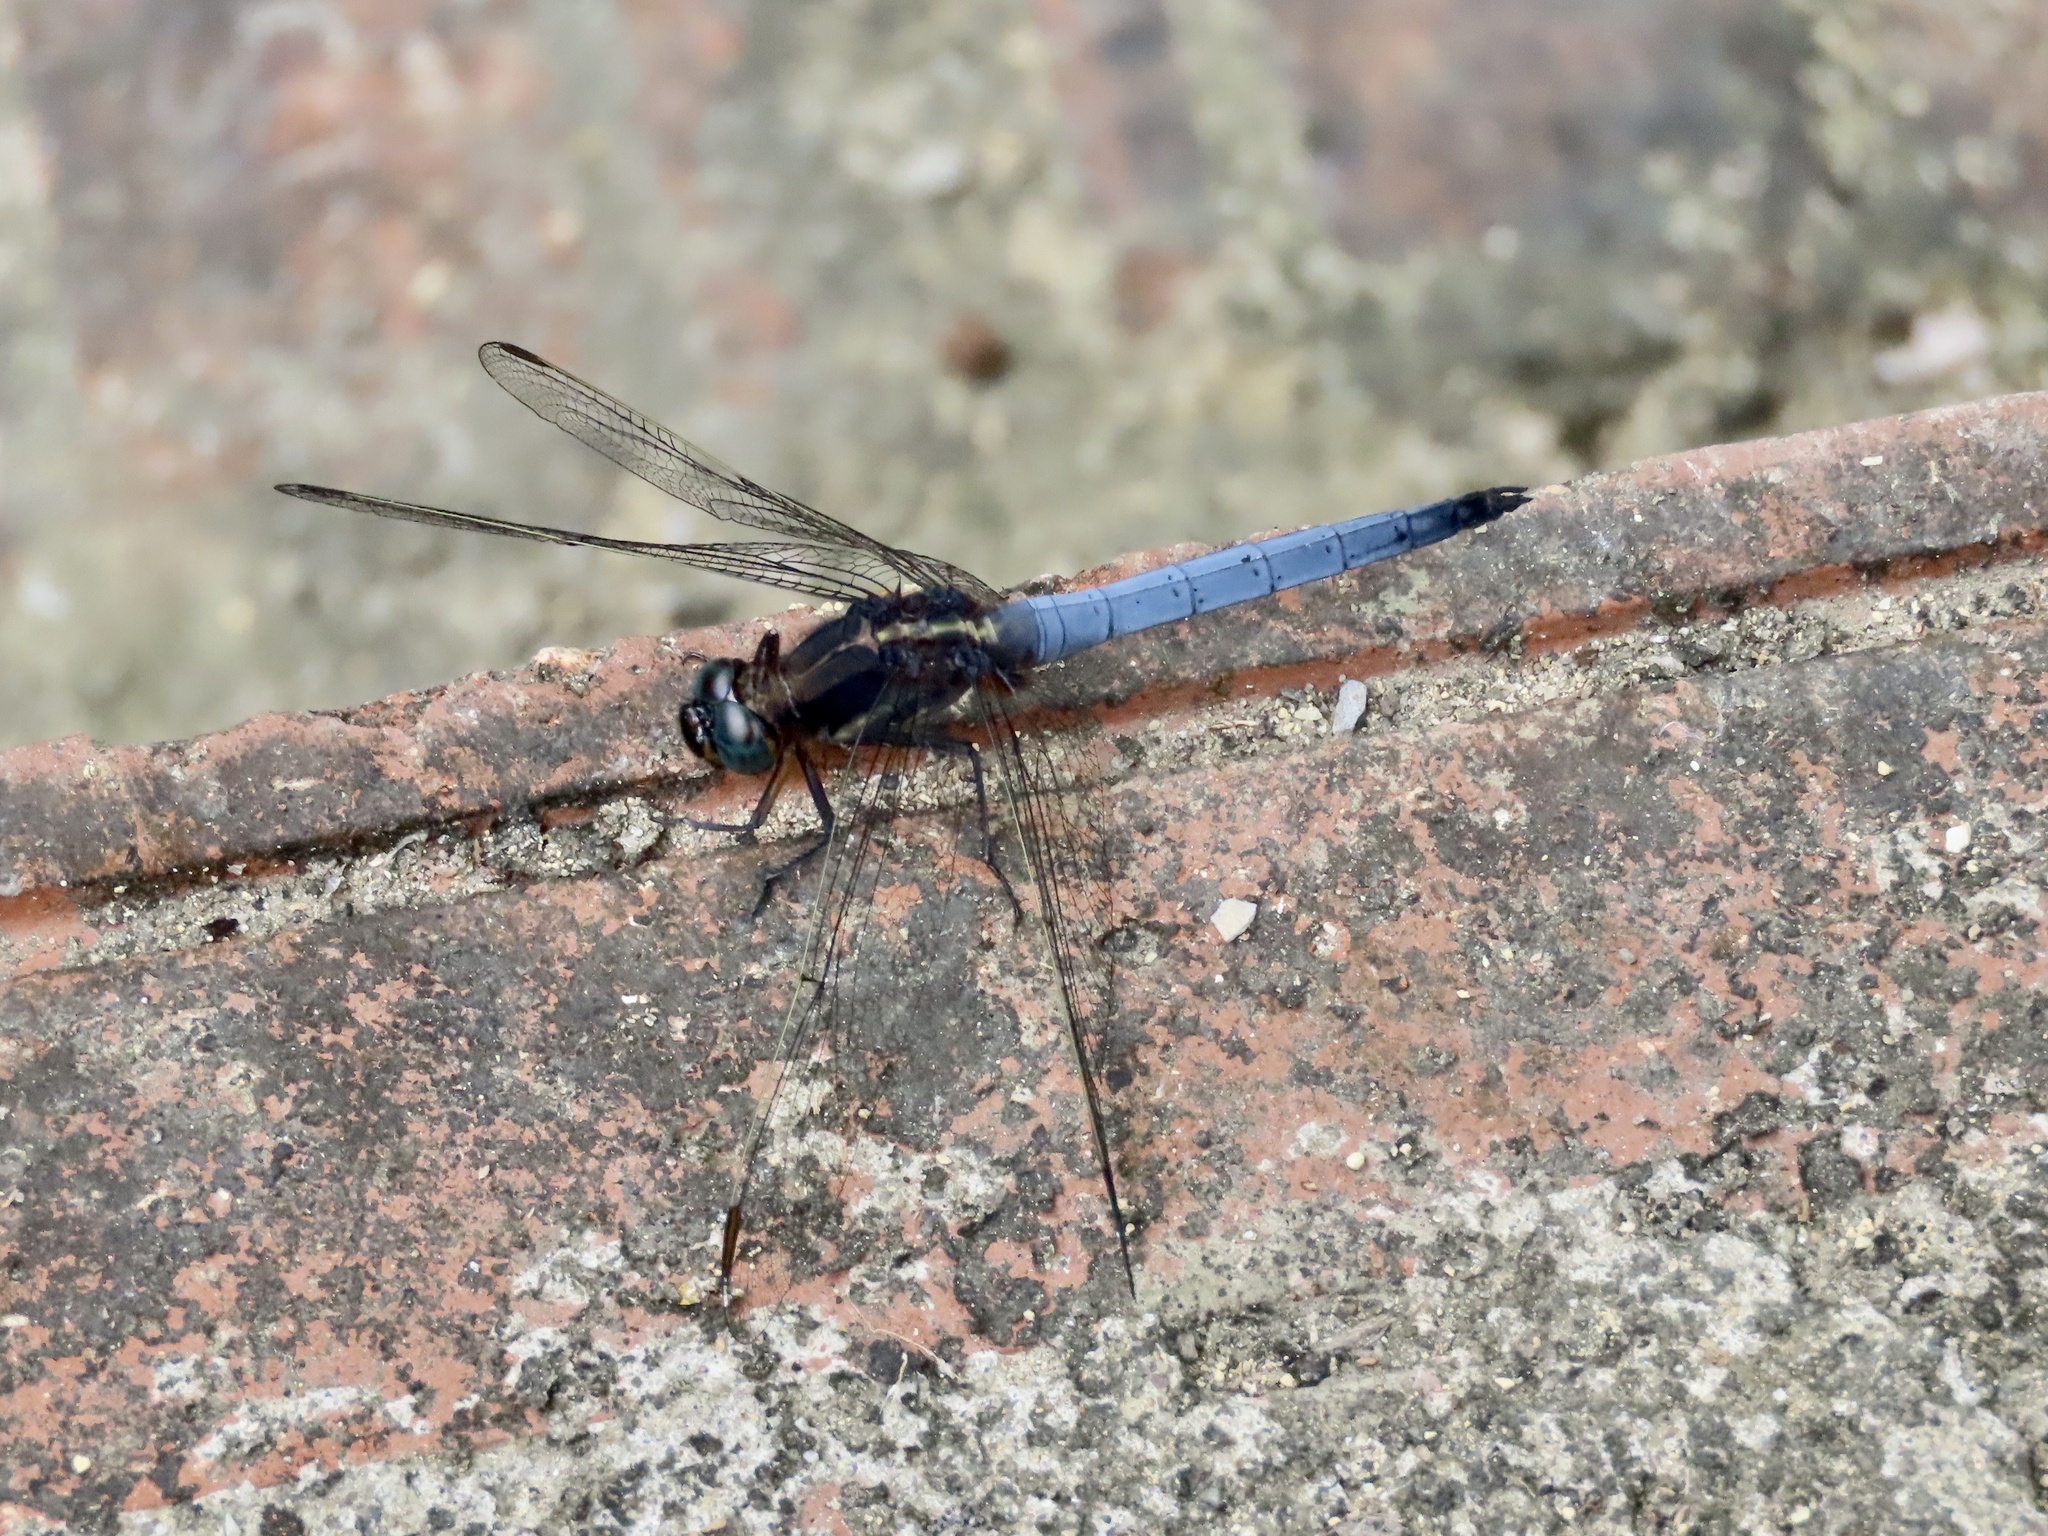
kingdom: Animalia
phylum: Arthropoda
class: Insecta
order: Odonata
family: Libellulidae
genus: Orthetrum
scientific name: Orthetrum glaucum
